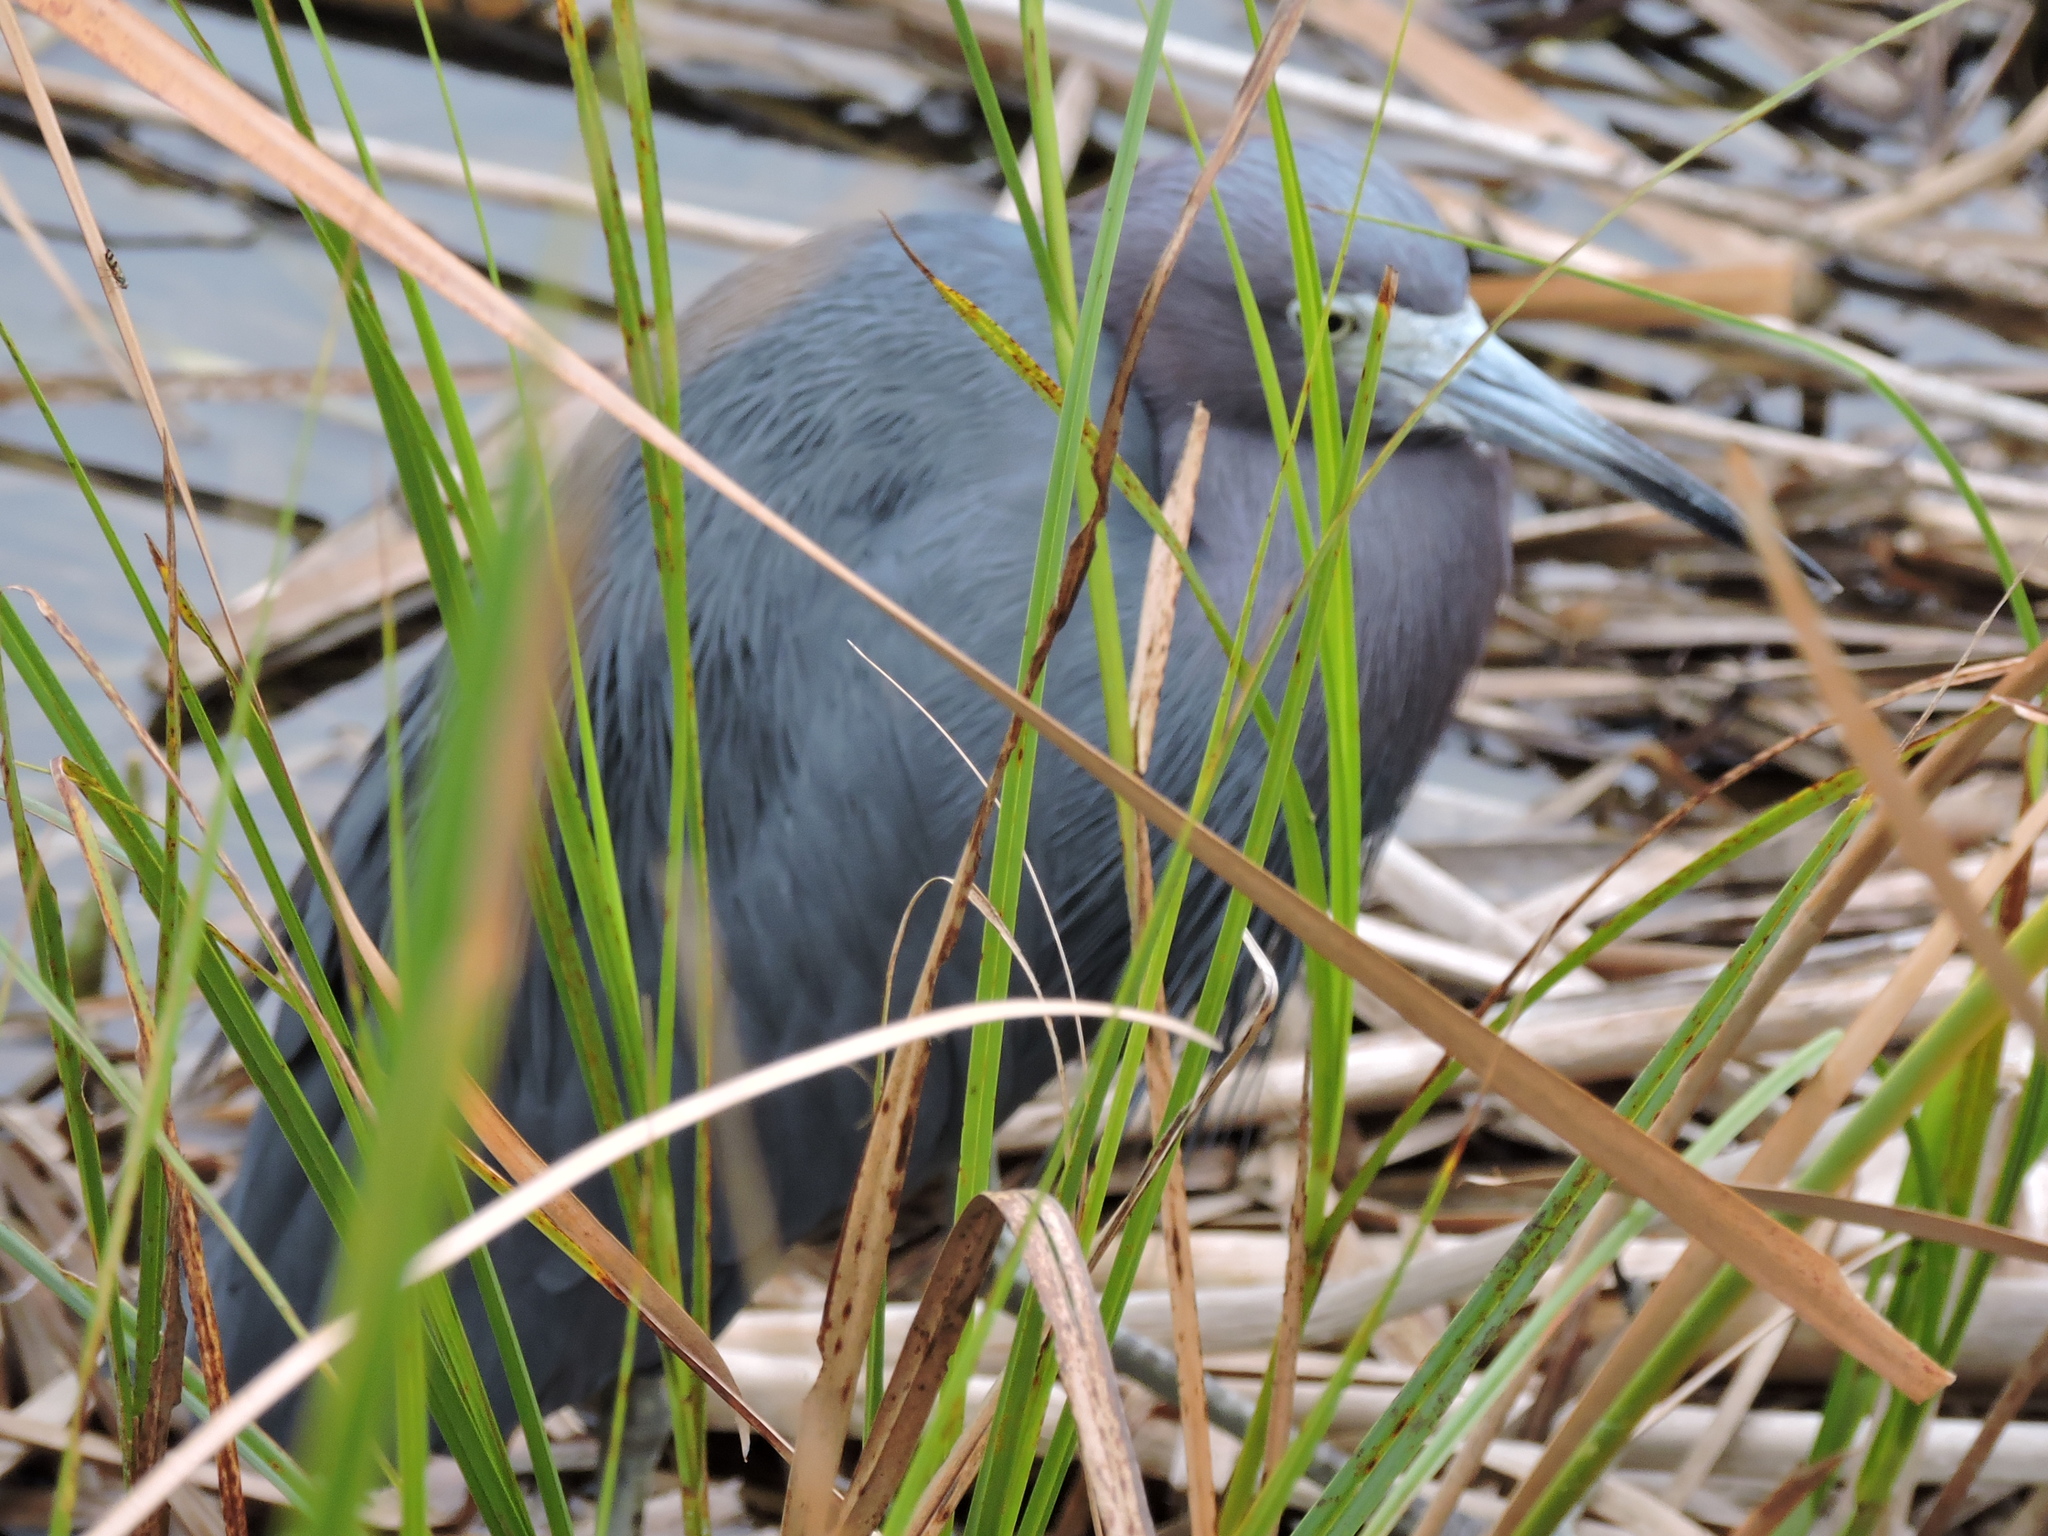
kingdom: Animalia
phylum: Chordata
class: Aves
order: Pelecaniformes
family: Ardeidae
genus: Egretta
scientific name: Egretta caerulea
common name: Little blue heron
